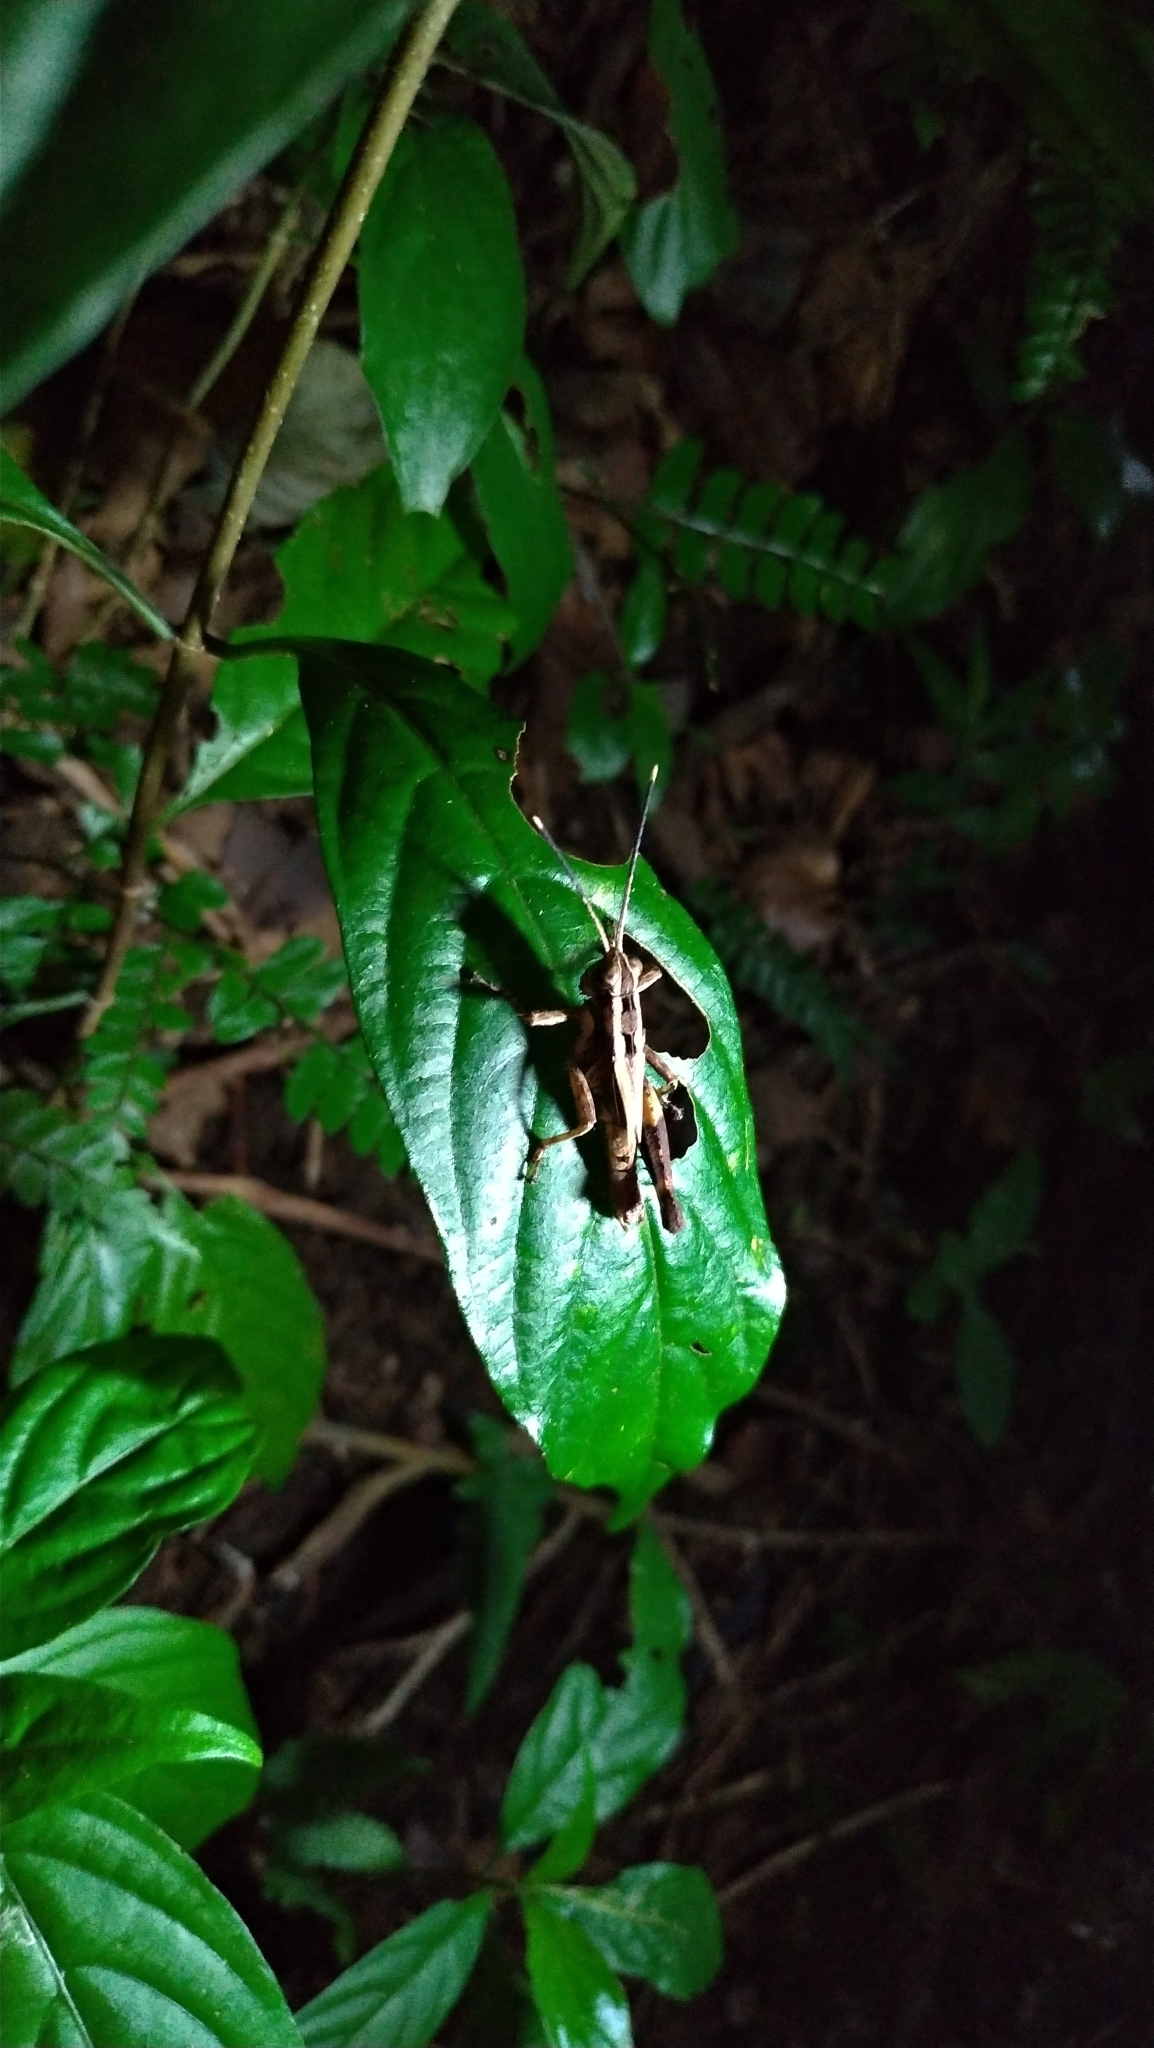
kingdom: Animalia
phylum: Arthropoda
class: Insecta
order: Orthoptera
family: Acrididae
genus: Traulia
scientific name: Traulia ornata
